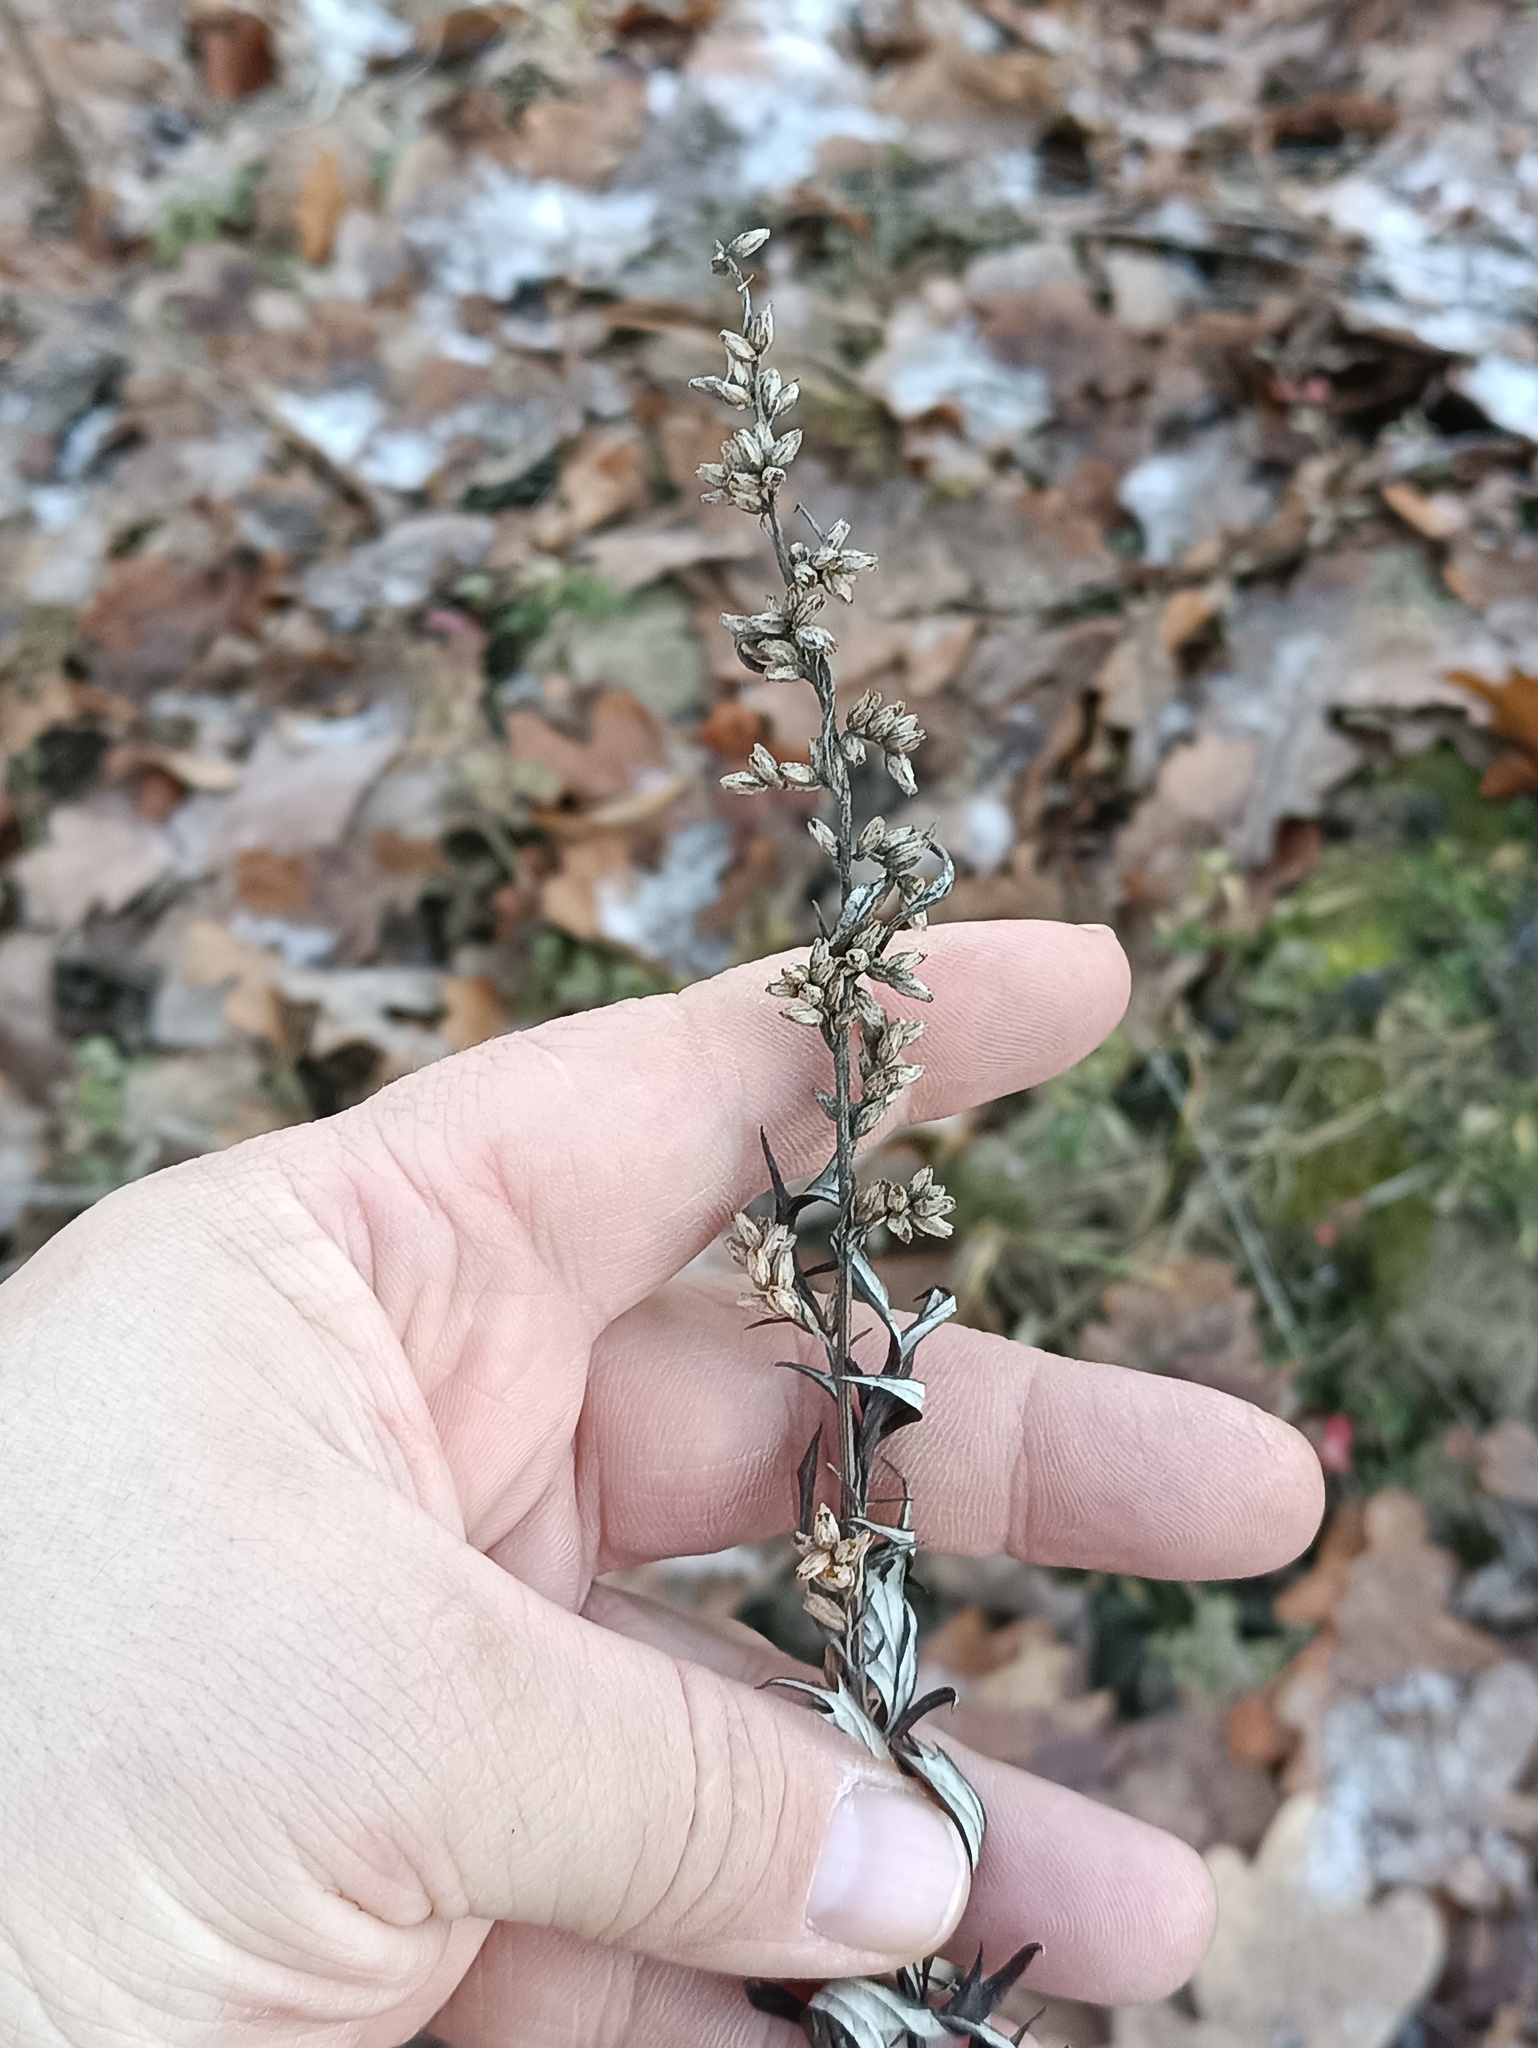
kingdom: Plantae
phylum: Tracheophyta
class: Magnoliopsida
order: Asterales
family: Asteraceae
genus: Artemisia
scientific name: Artemisia vulgaris
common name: Mugwort
